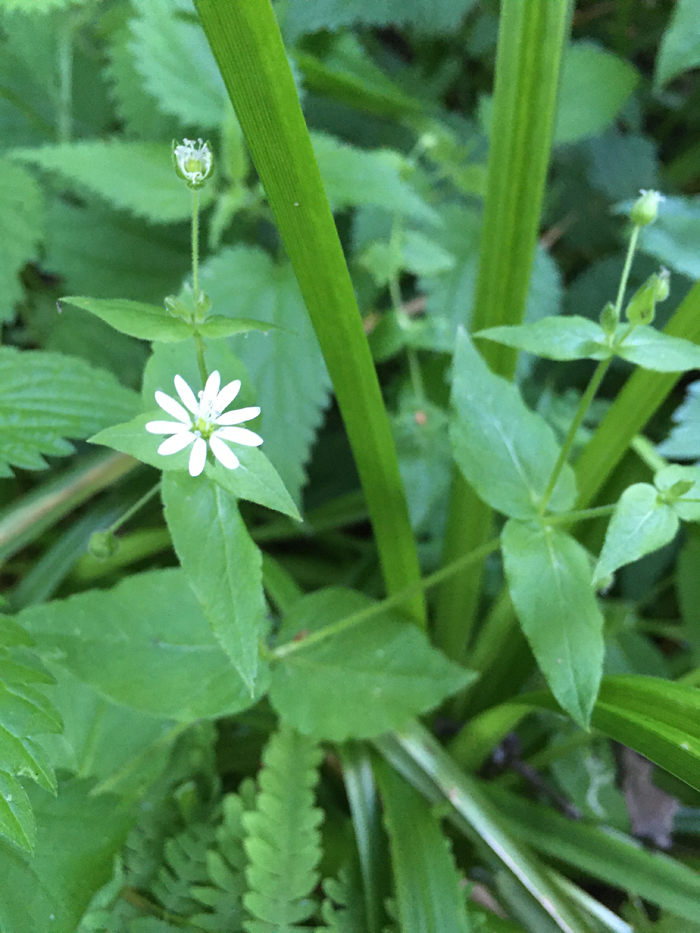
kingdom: Plantae
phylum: Tracheophyta
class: Magnoliopsida
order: Caryophyllales
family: Caryophyllaceae
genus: Stellaria
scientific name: Stellaria aquatica
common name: Water chickweed
